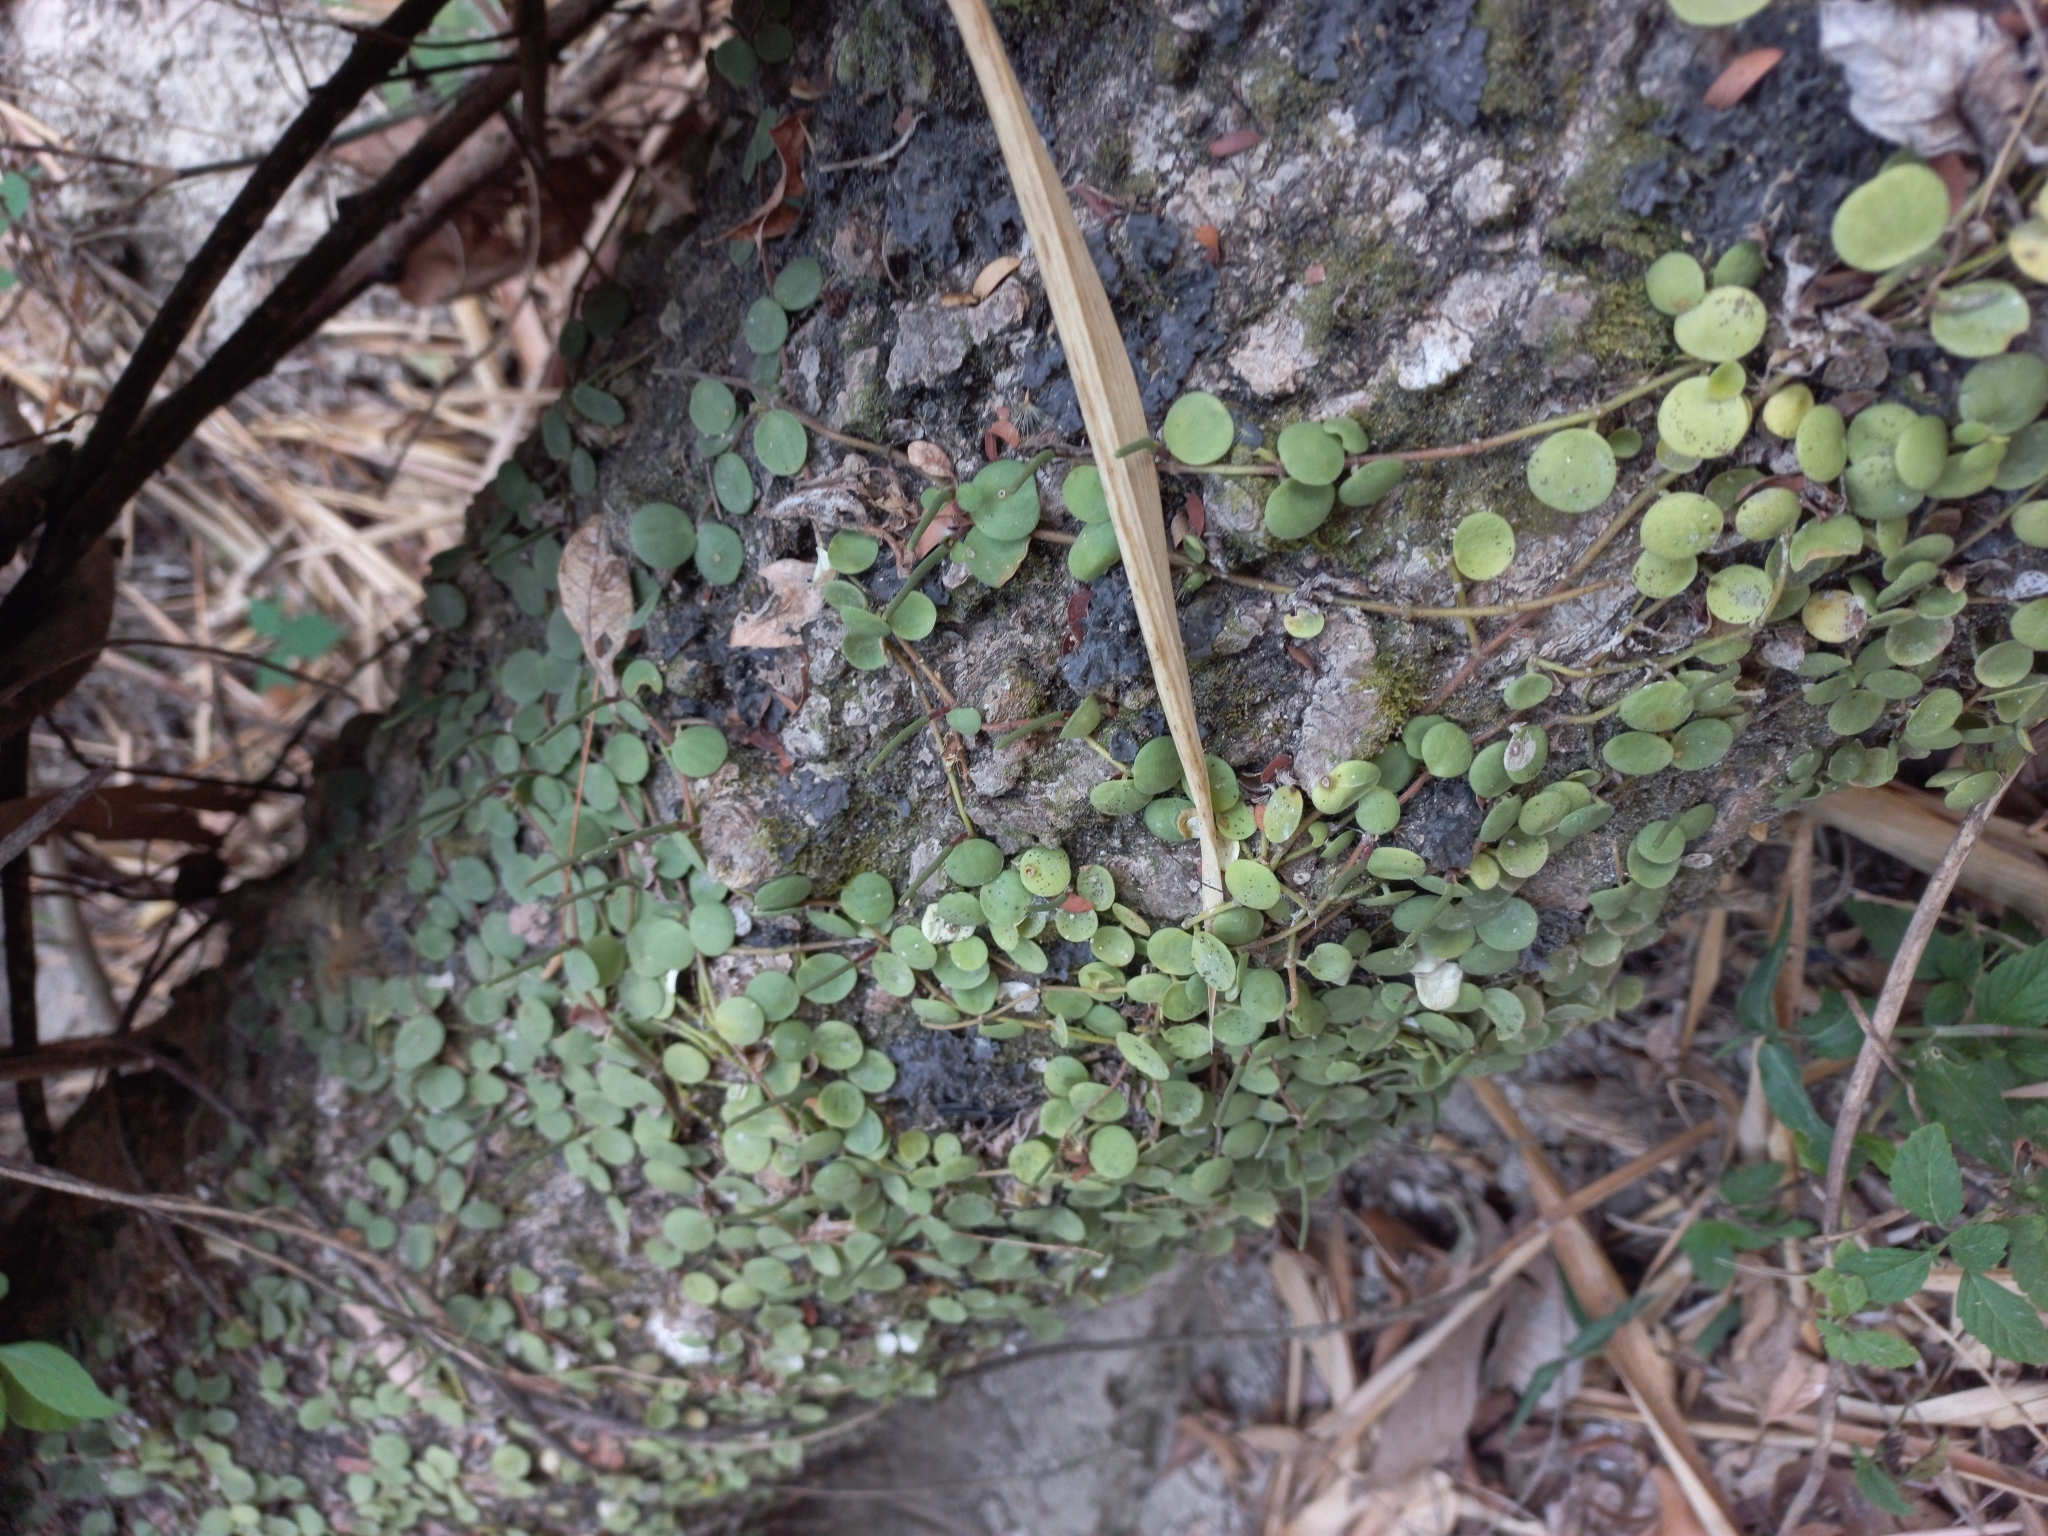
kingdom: Plantae
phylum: Tracheophyta
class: Magnoliopsida
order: Piperales
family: Piperaceae
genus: Peperomia
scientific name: Peperomia cyclophylla
